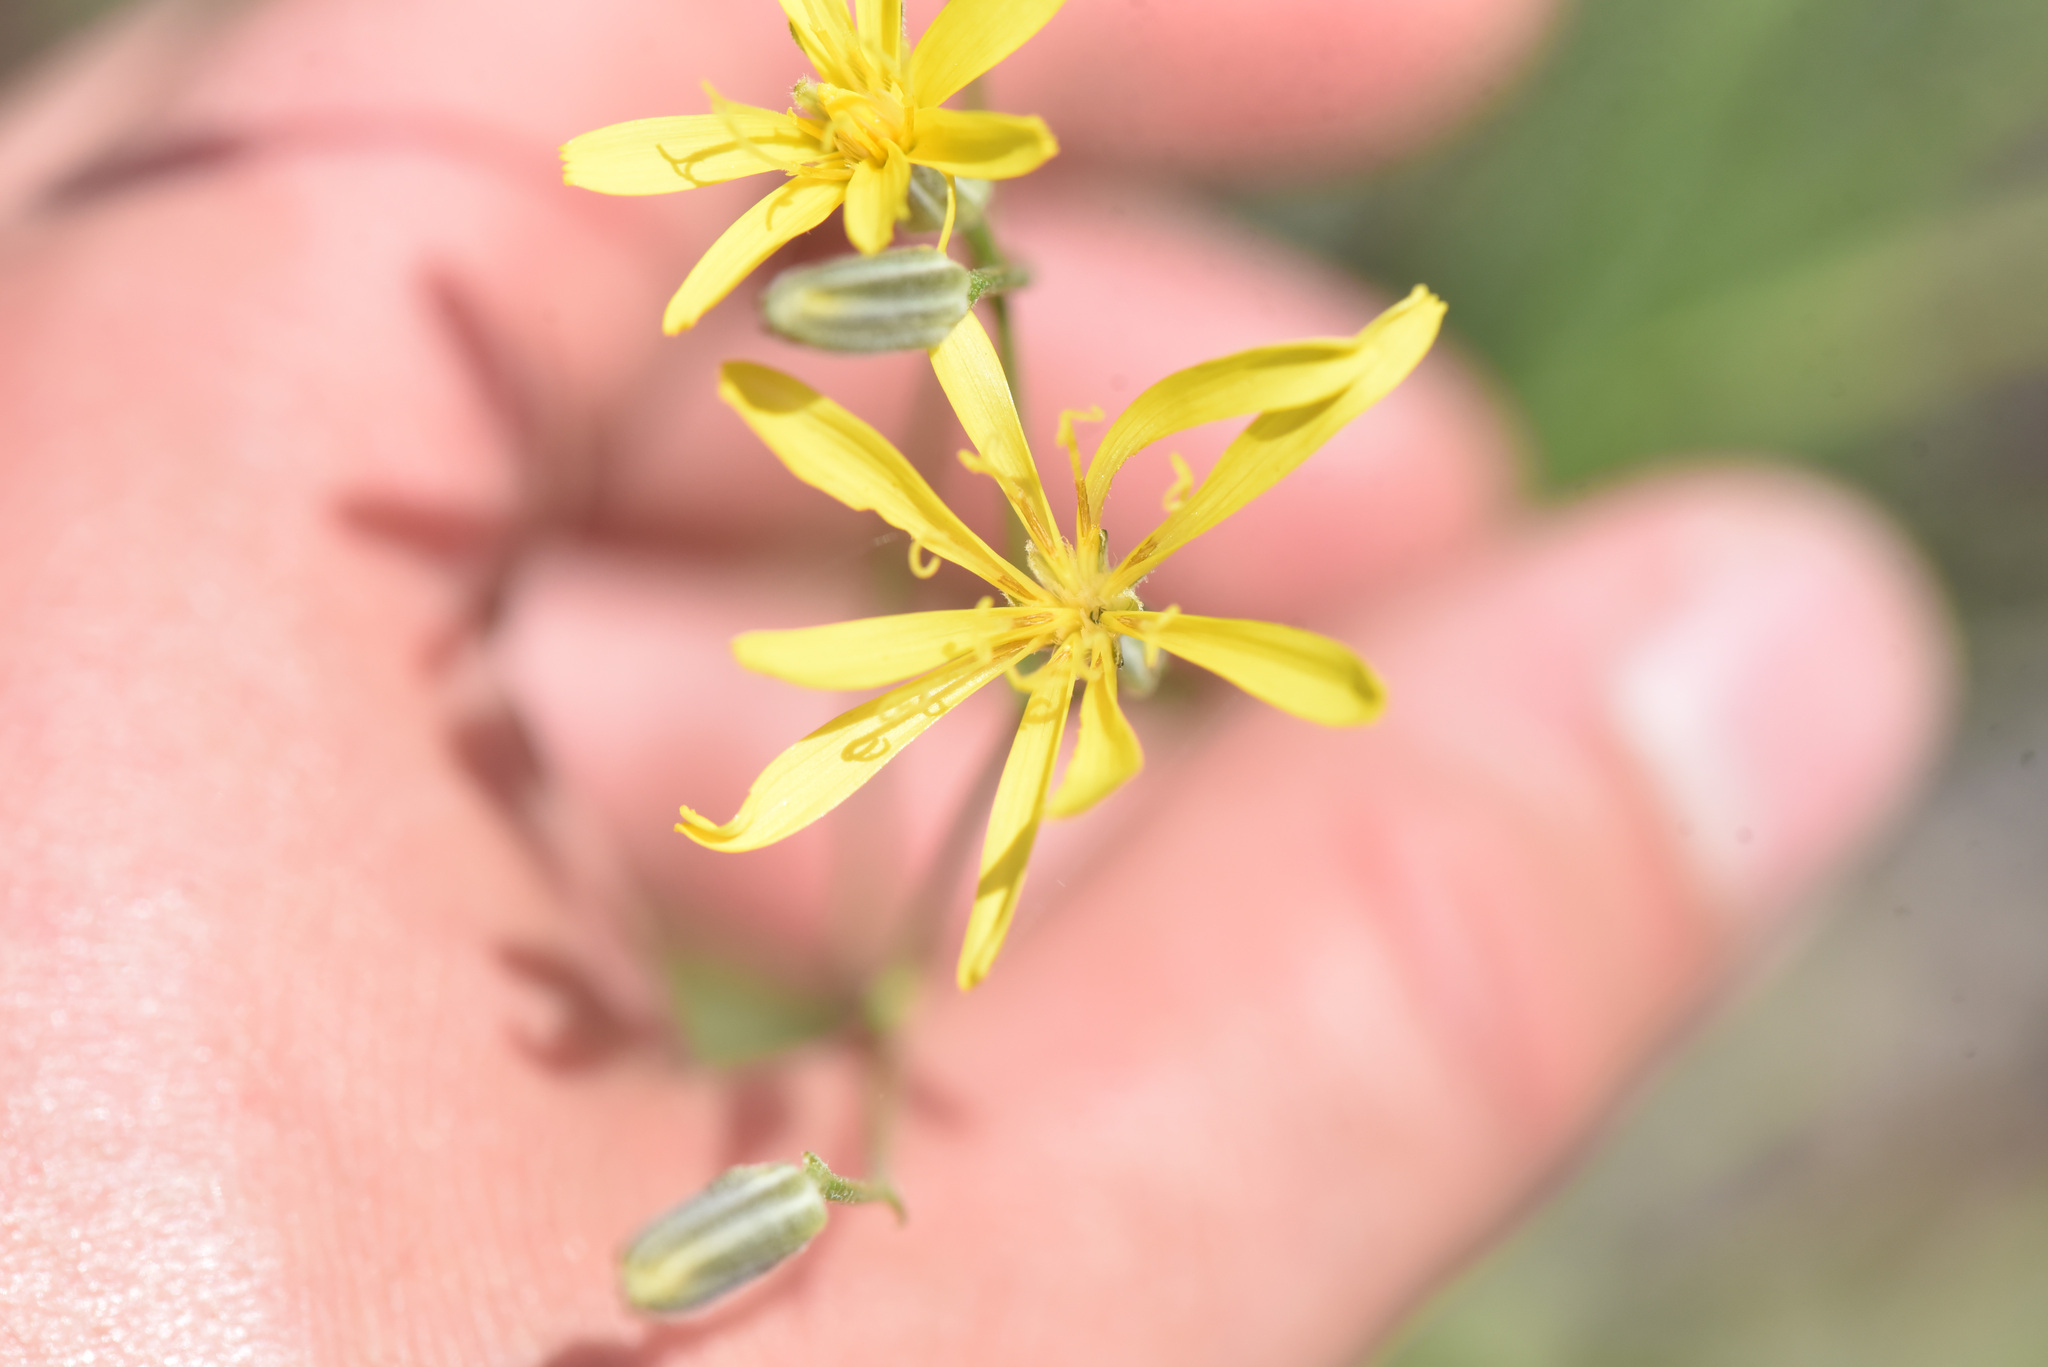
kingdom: Plantae
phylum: Tracheophyta
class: Magnoliopsida
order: Asterales
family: Asteraceae
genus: Crepis
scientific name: Crepis atribarba
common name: Dark hawk's-beard
